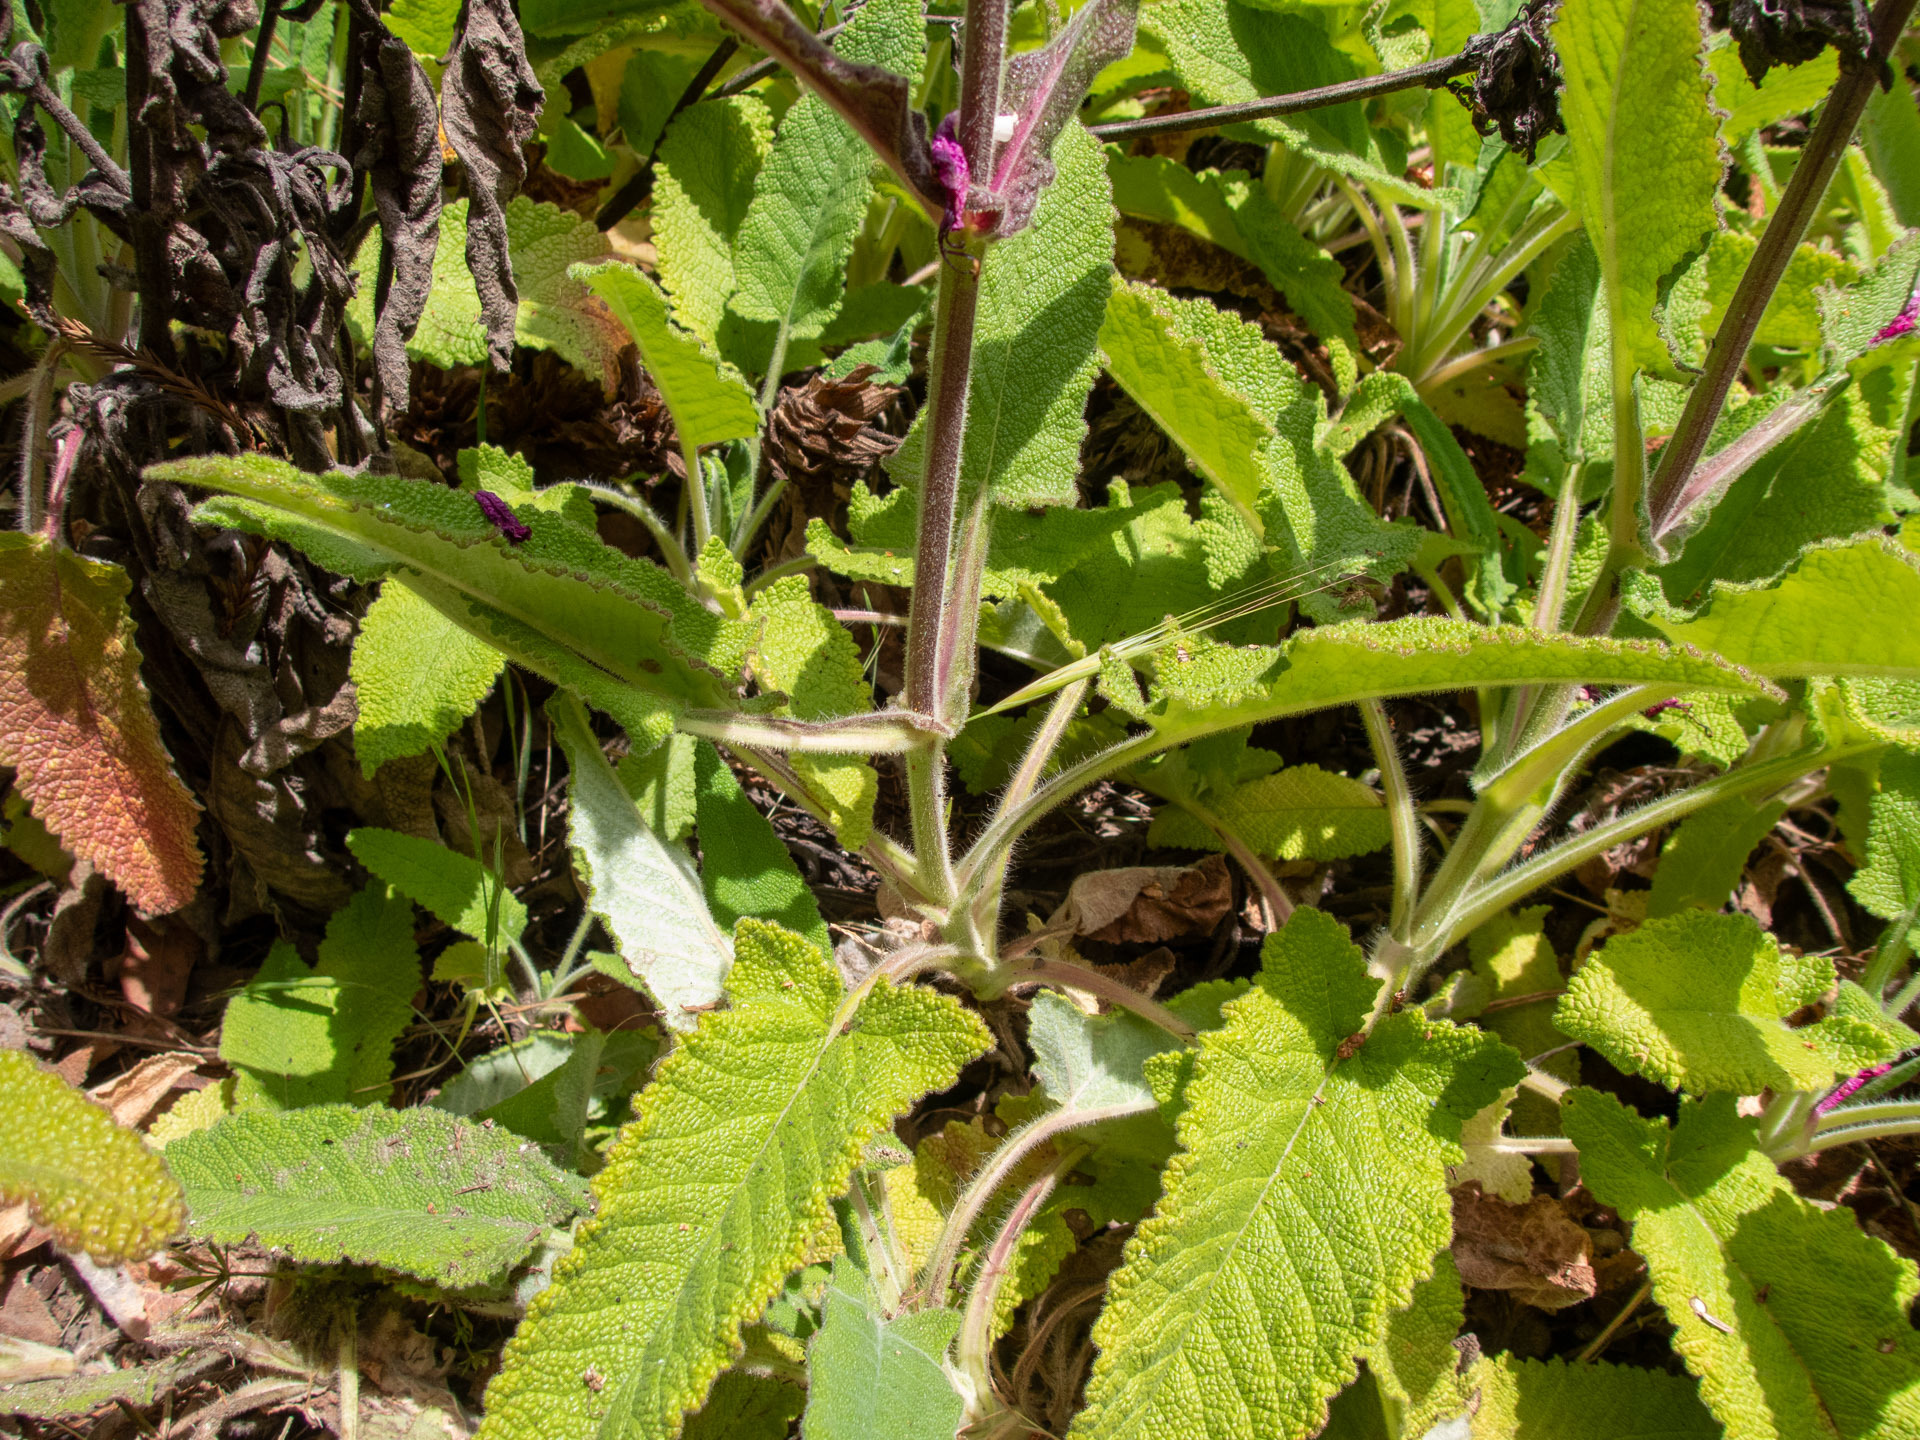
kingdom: Plantae
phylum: Tracheophyta
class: Magnoliopsida
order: Lamiales
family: Lamiaceae
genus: Salvia
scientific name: Salvia spathacea
